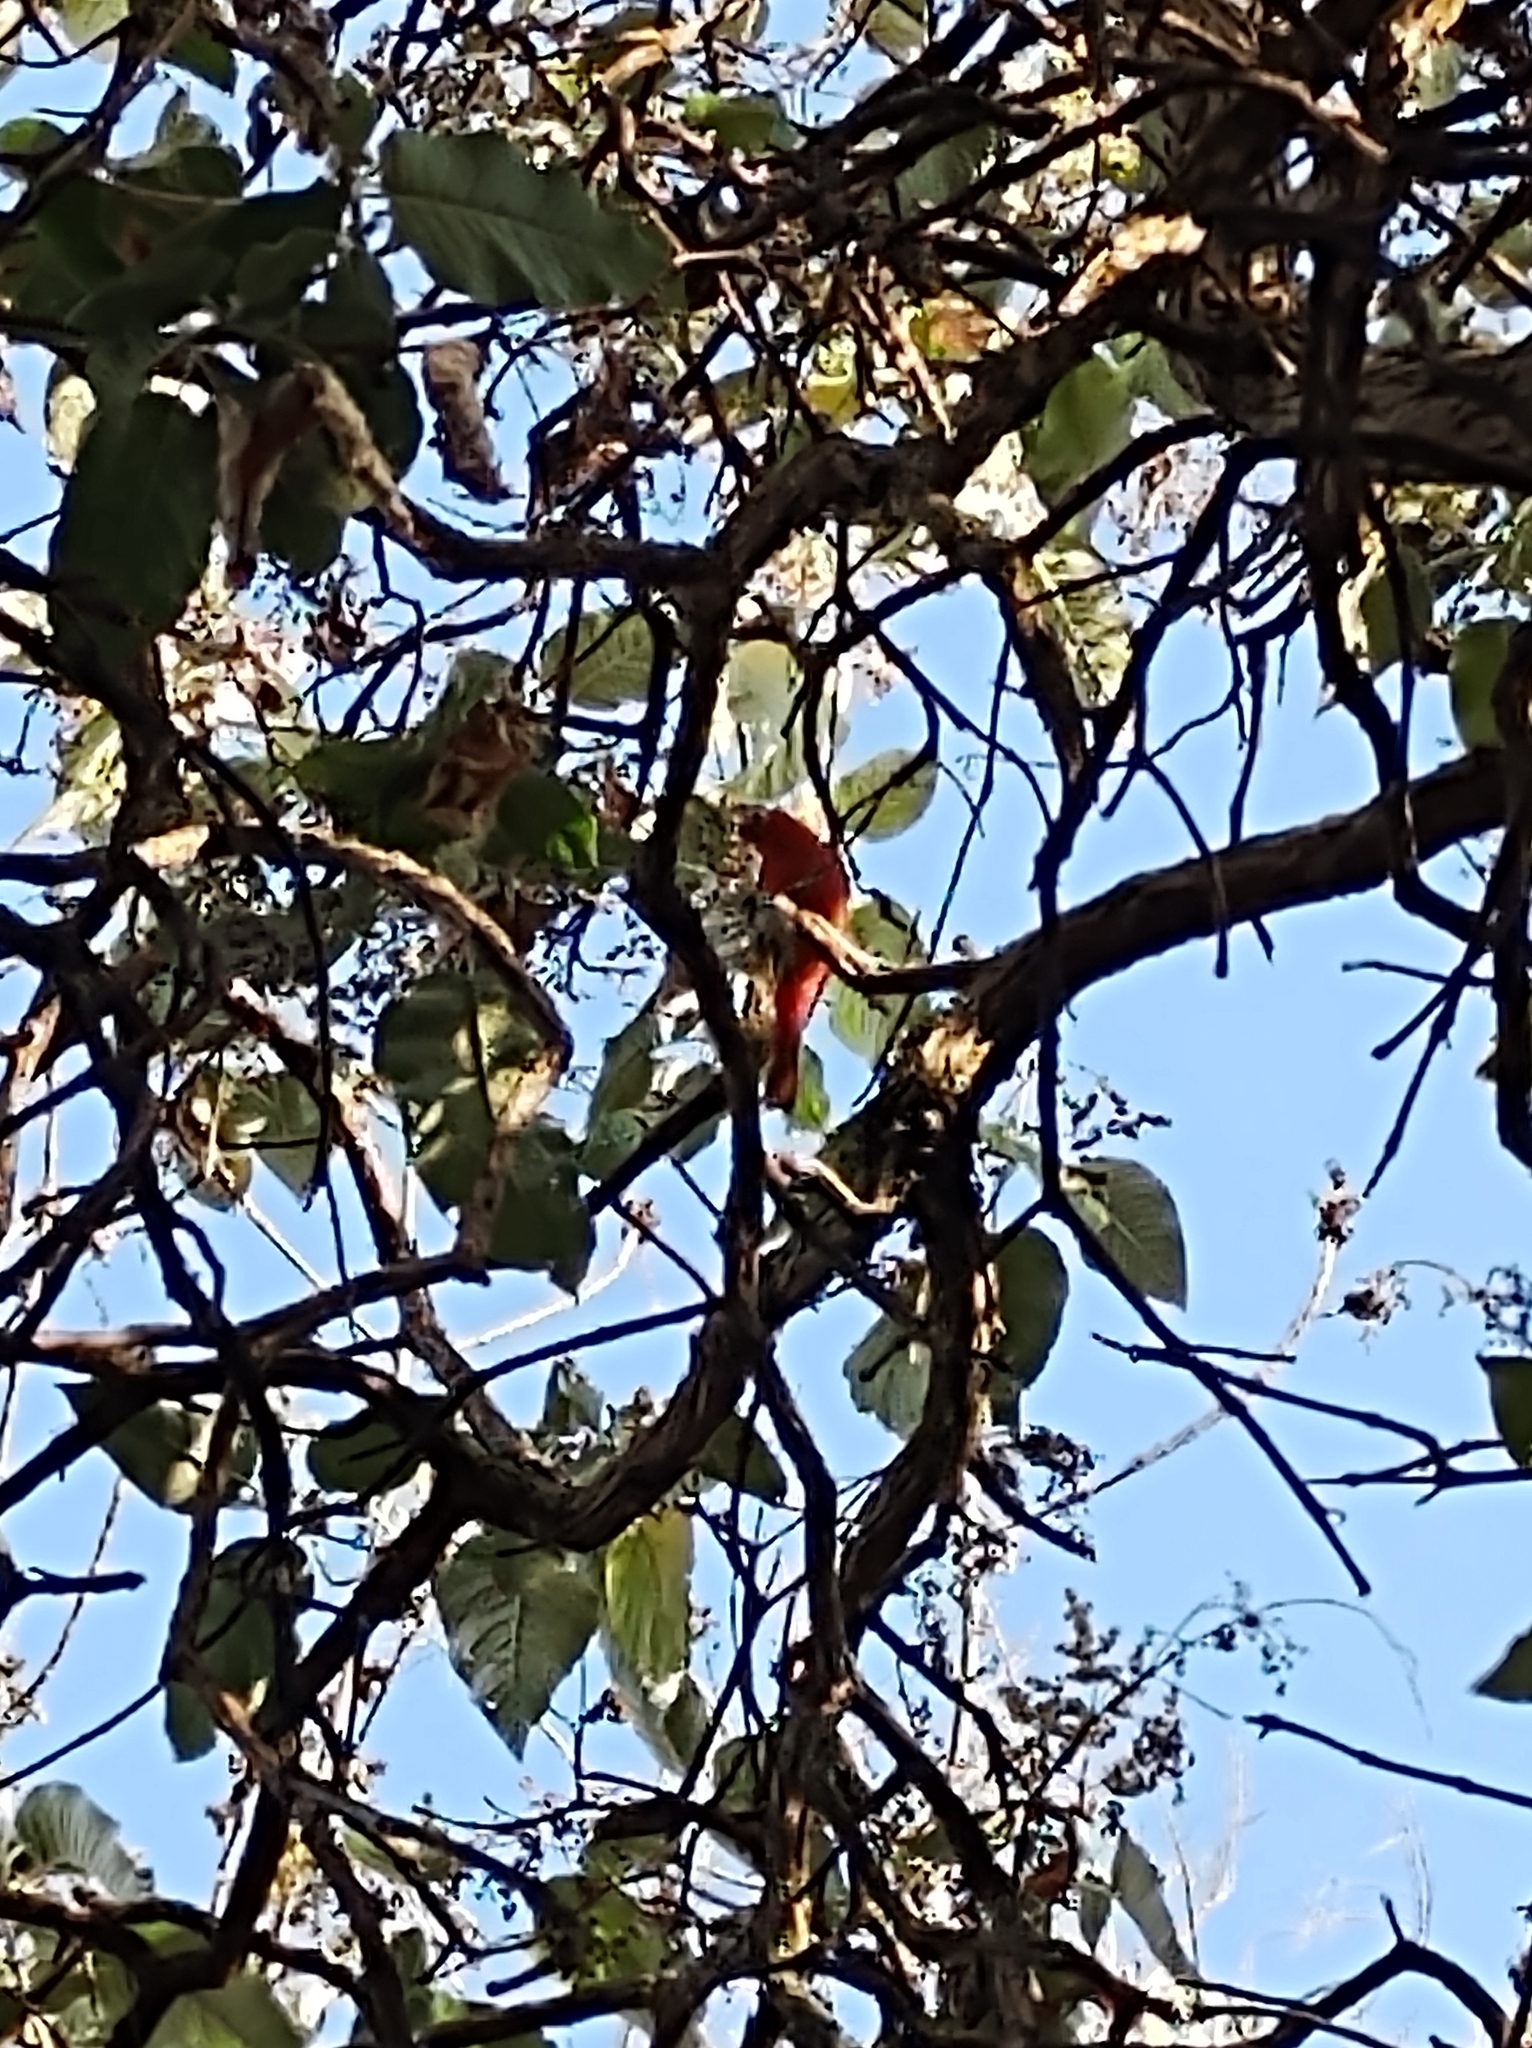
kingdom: Animalia
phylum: Chordata
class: Aves
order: Passeriformes
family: Cardinalidae
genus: Piranga
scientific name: Piranga rubra
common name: Summer tanager
